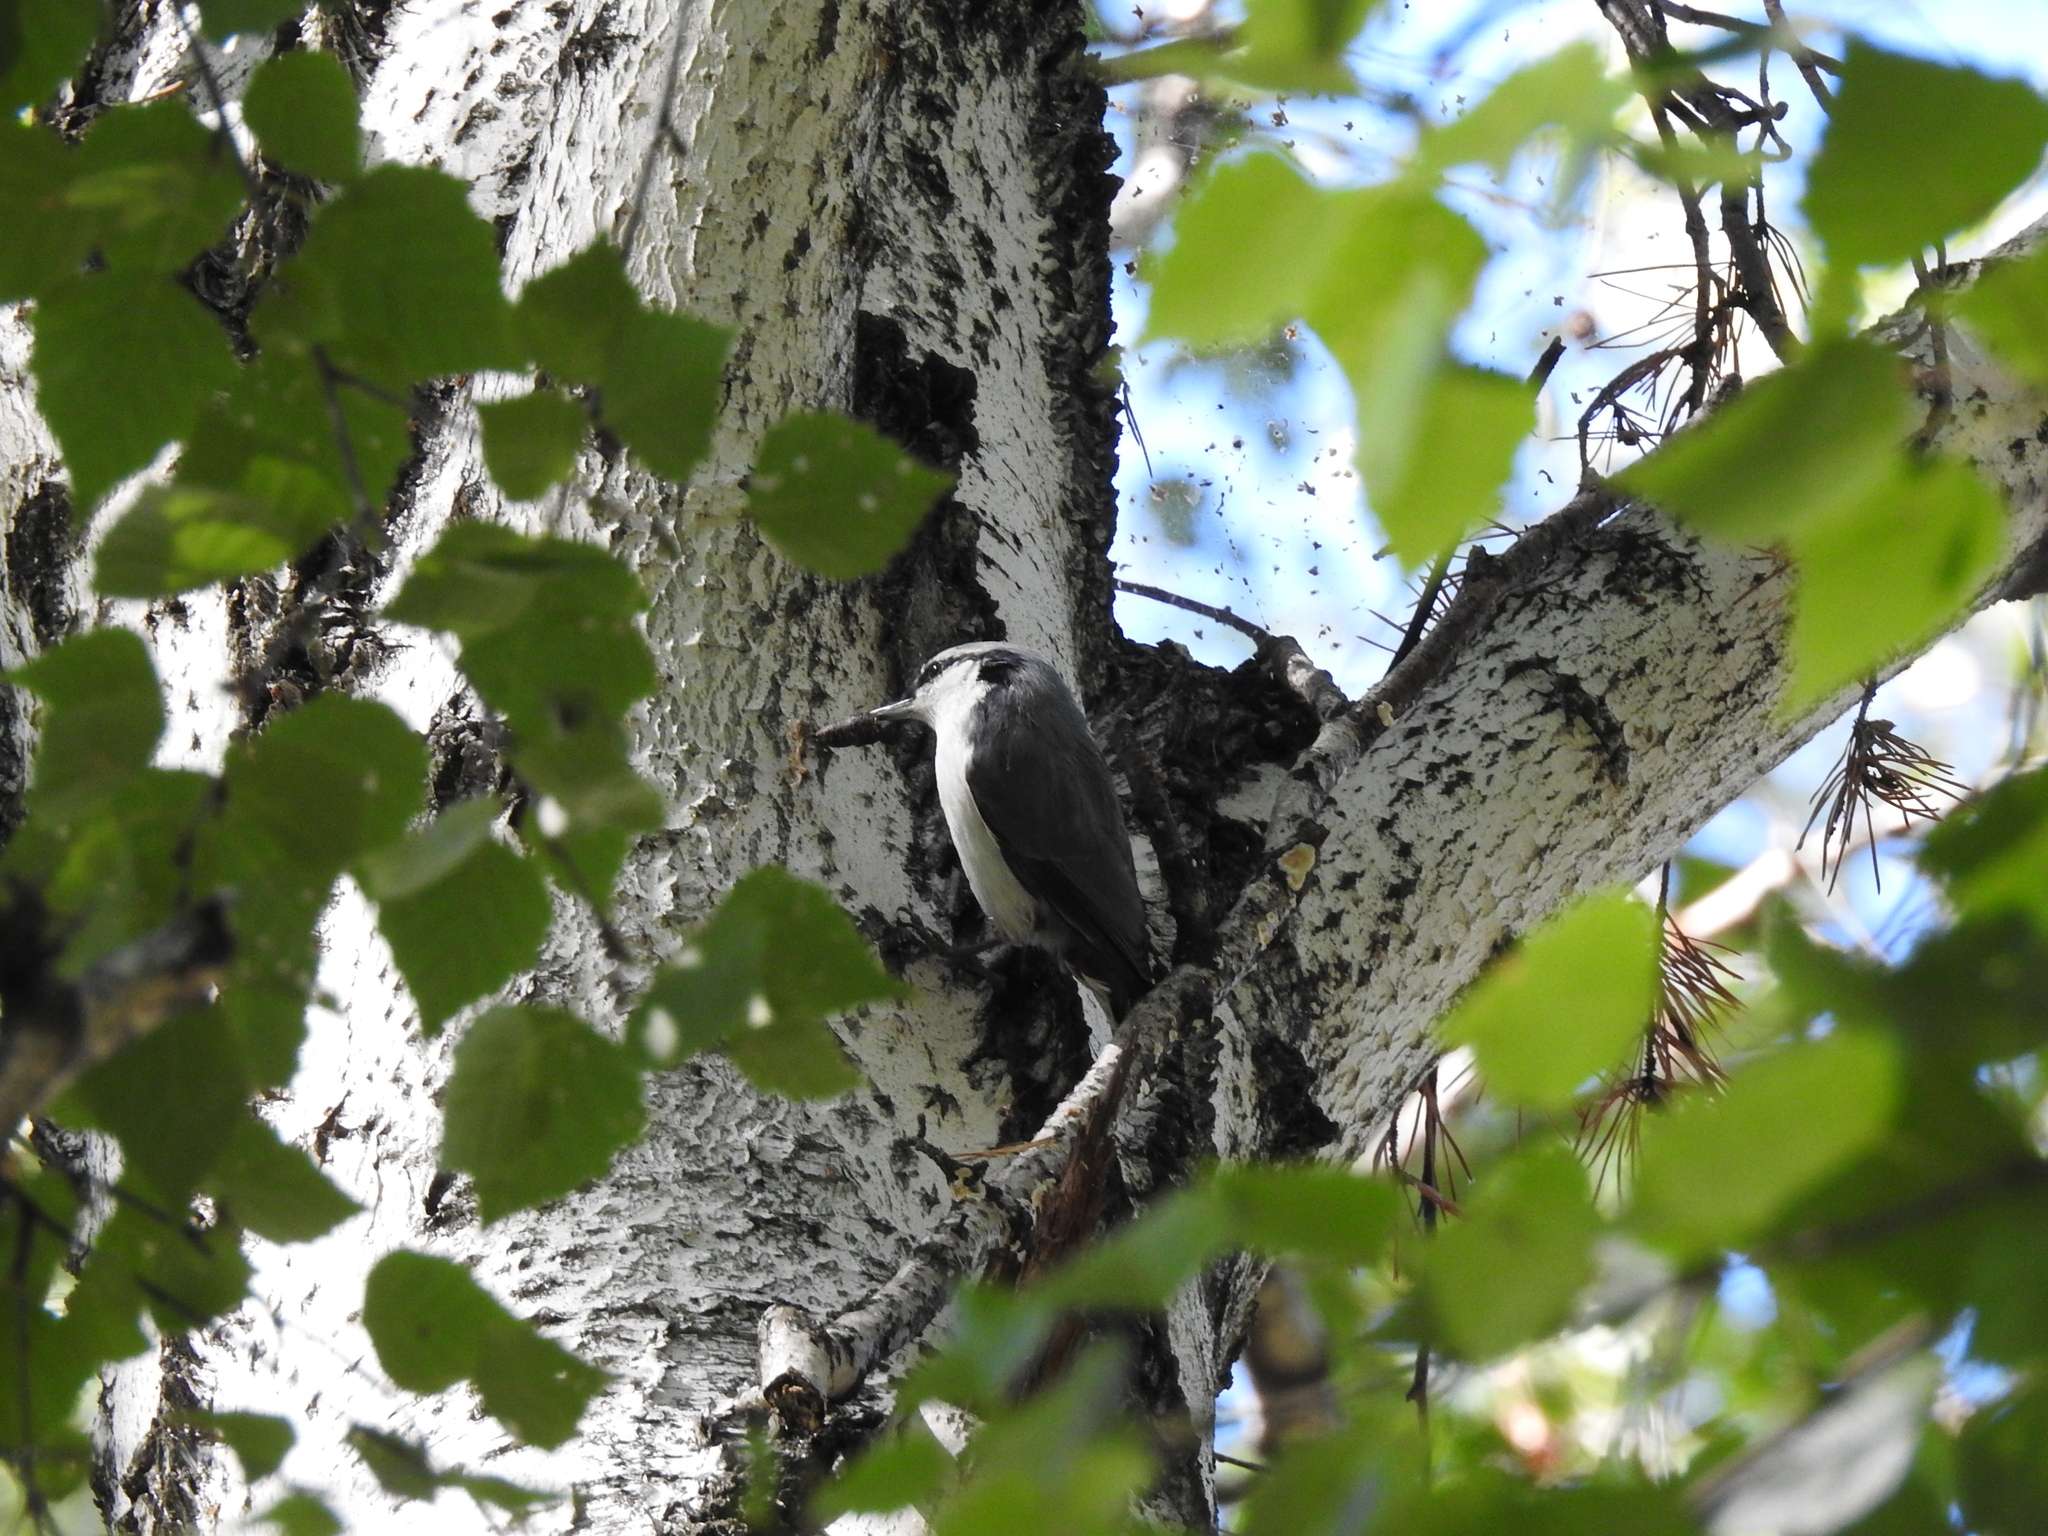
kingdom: Animalia
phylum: Chordata
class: Aves
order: Passeriformes
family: Sittidae
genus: Sitta
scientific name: Sitta europaea
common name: Eurasian nuthatch
